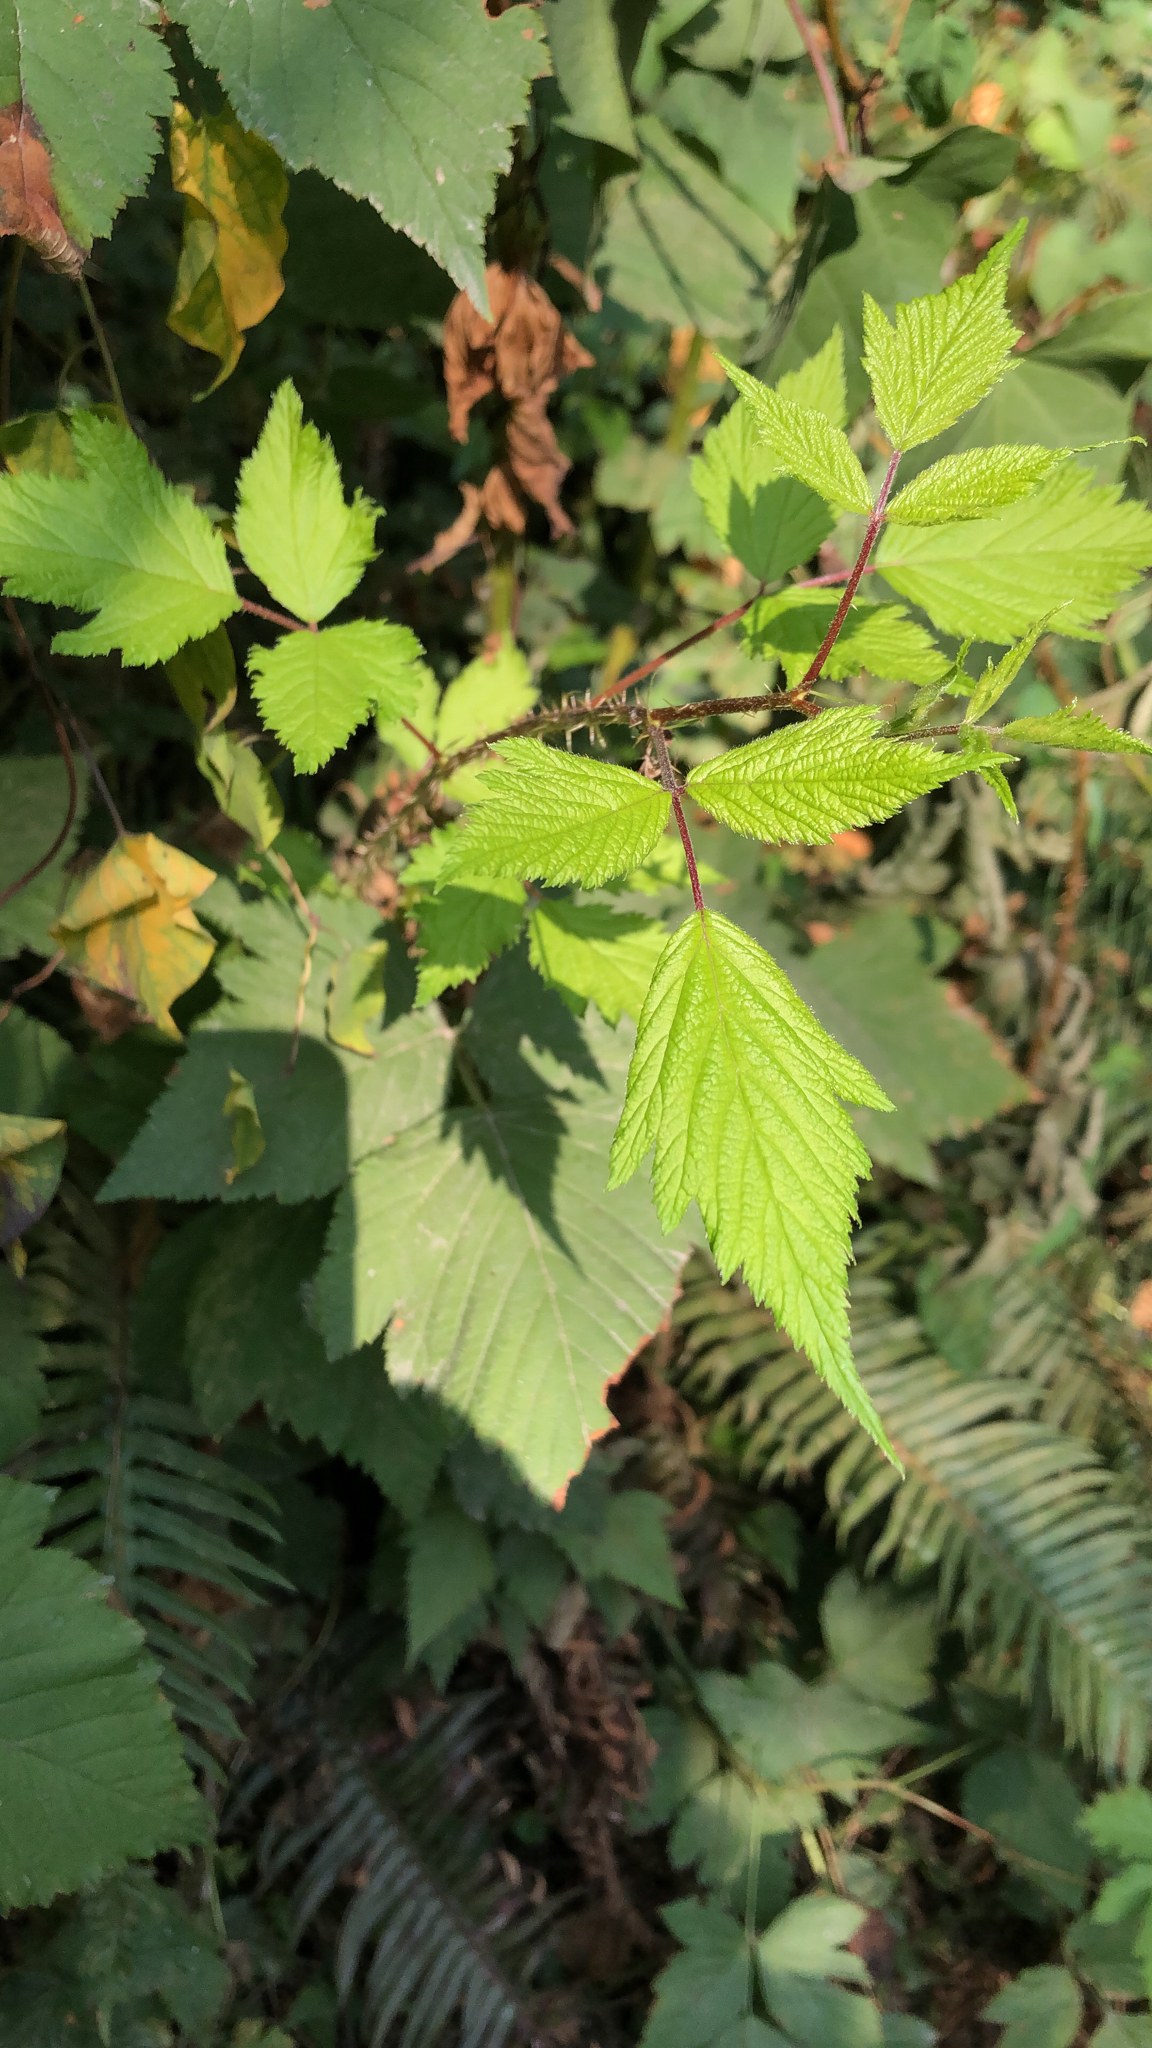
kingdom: Plantae
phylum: Tracheophyta
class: Magnoliopsida
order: Rosales
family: Rosaceae
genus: Rubus
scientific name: Rubus spectabilis
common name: Salmonberry
